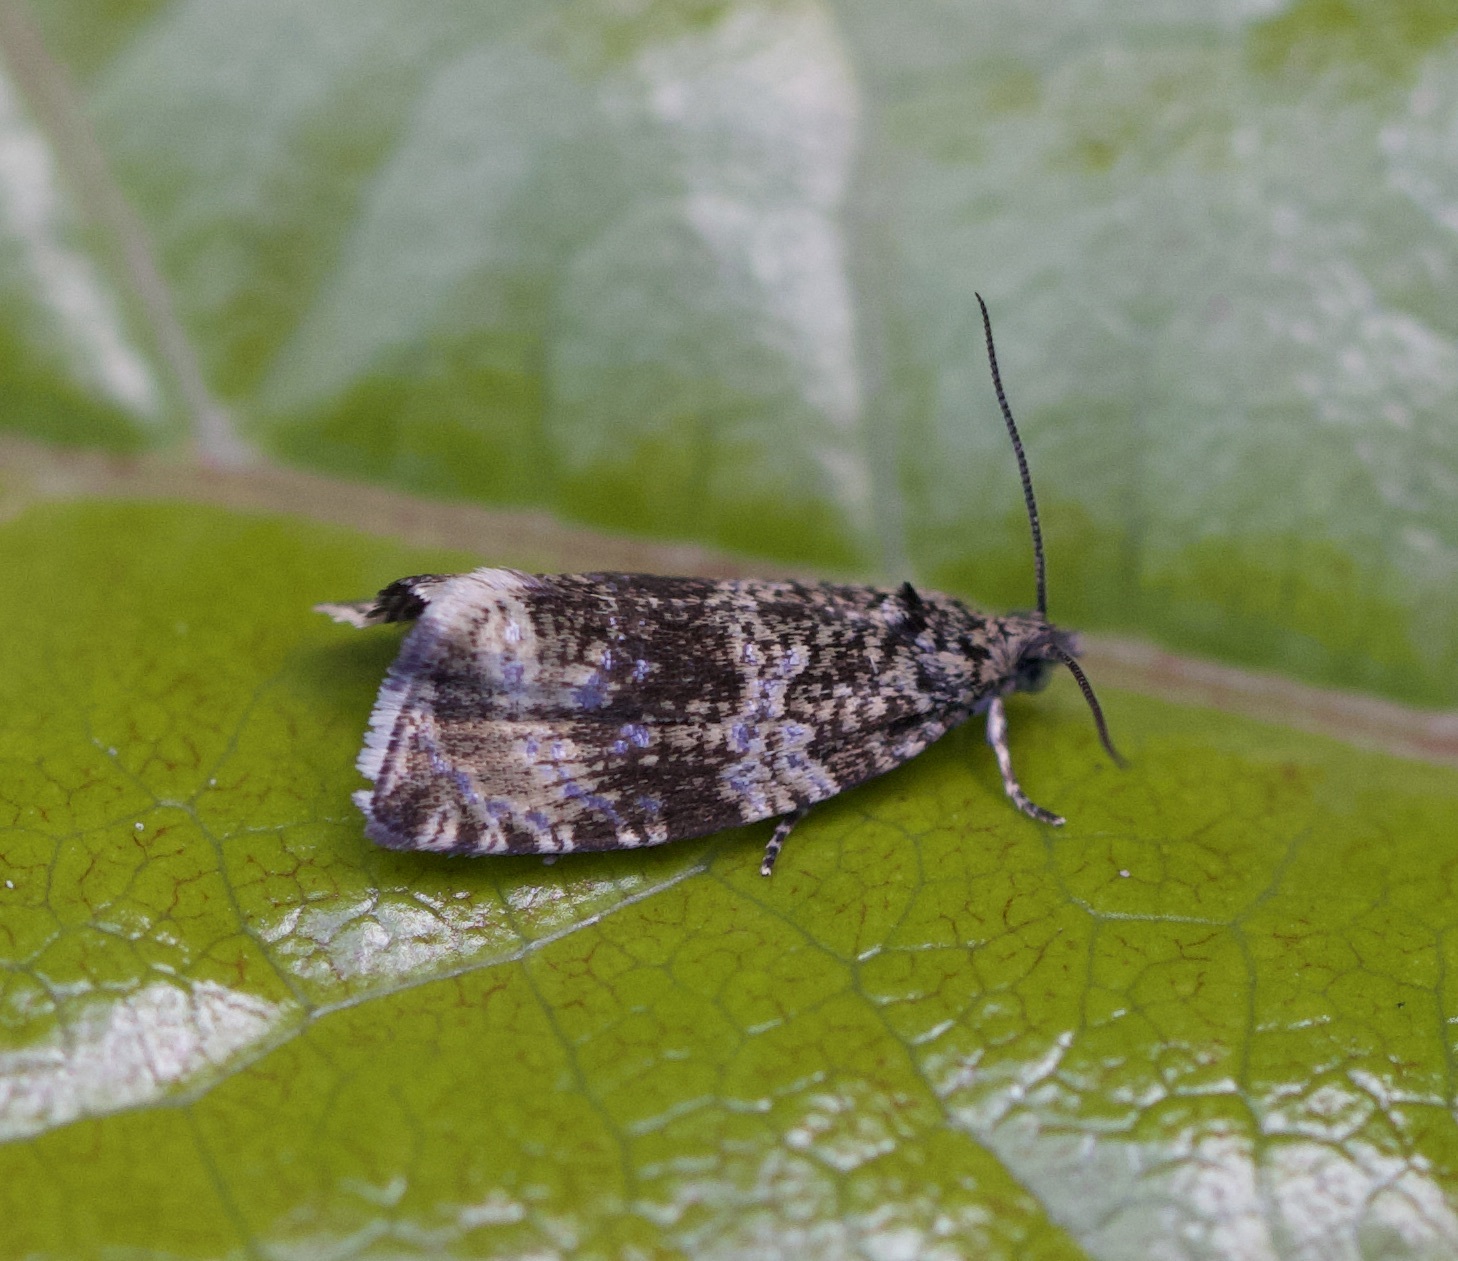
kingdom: Animalia
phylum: Arthropoda
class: Insecta
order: Lepidoptera
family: Tortricidae
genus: Syricoris
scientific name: Syricoris lacunana
